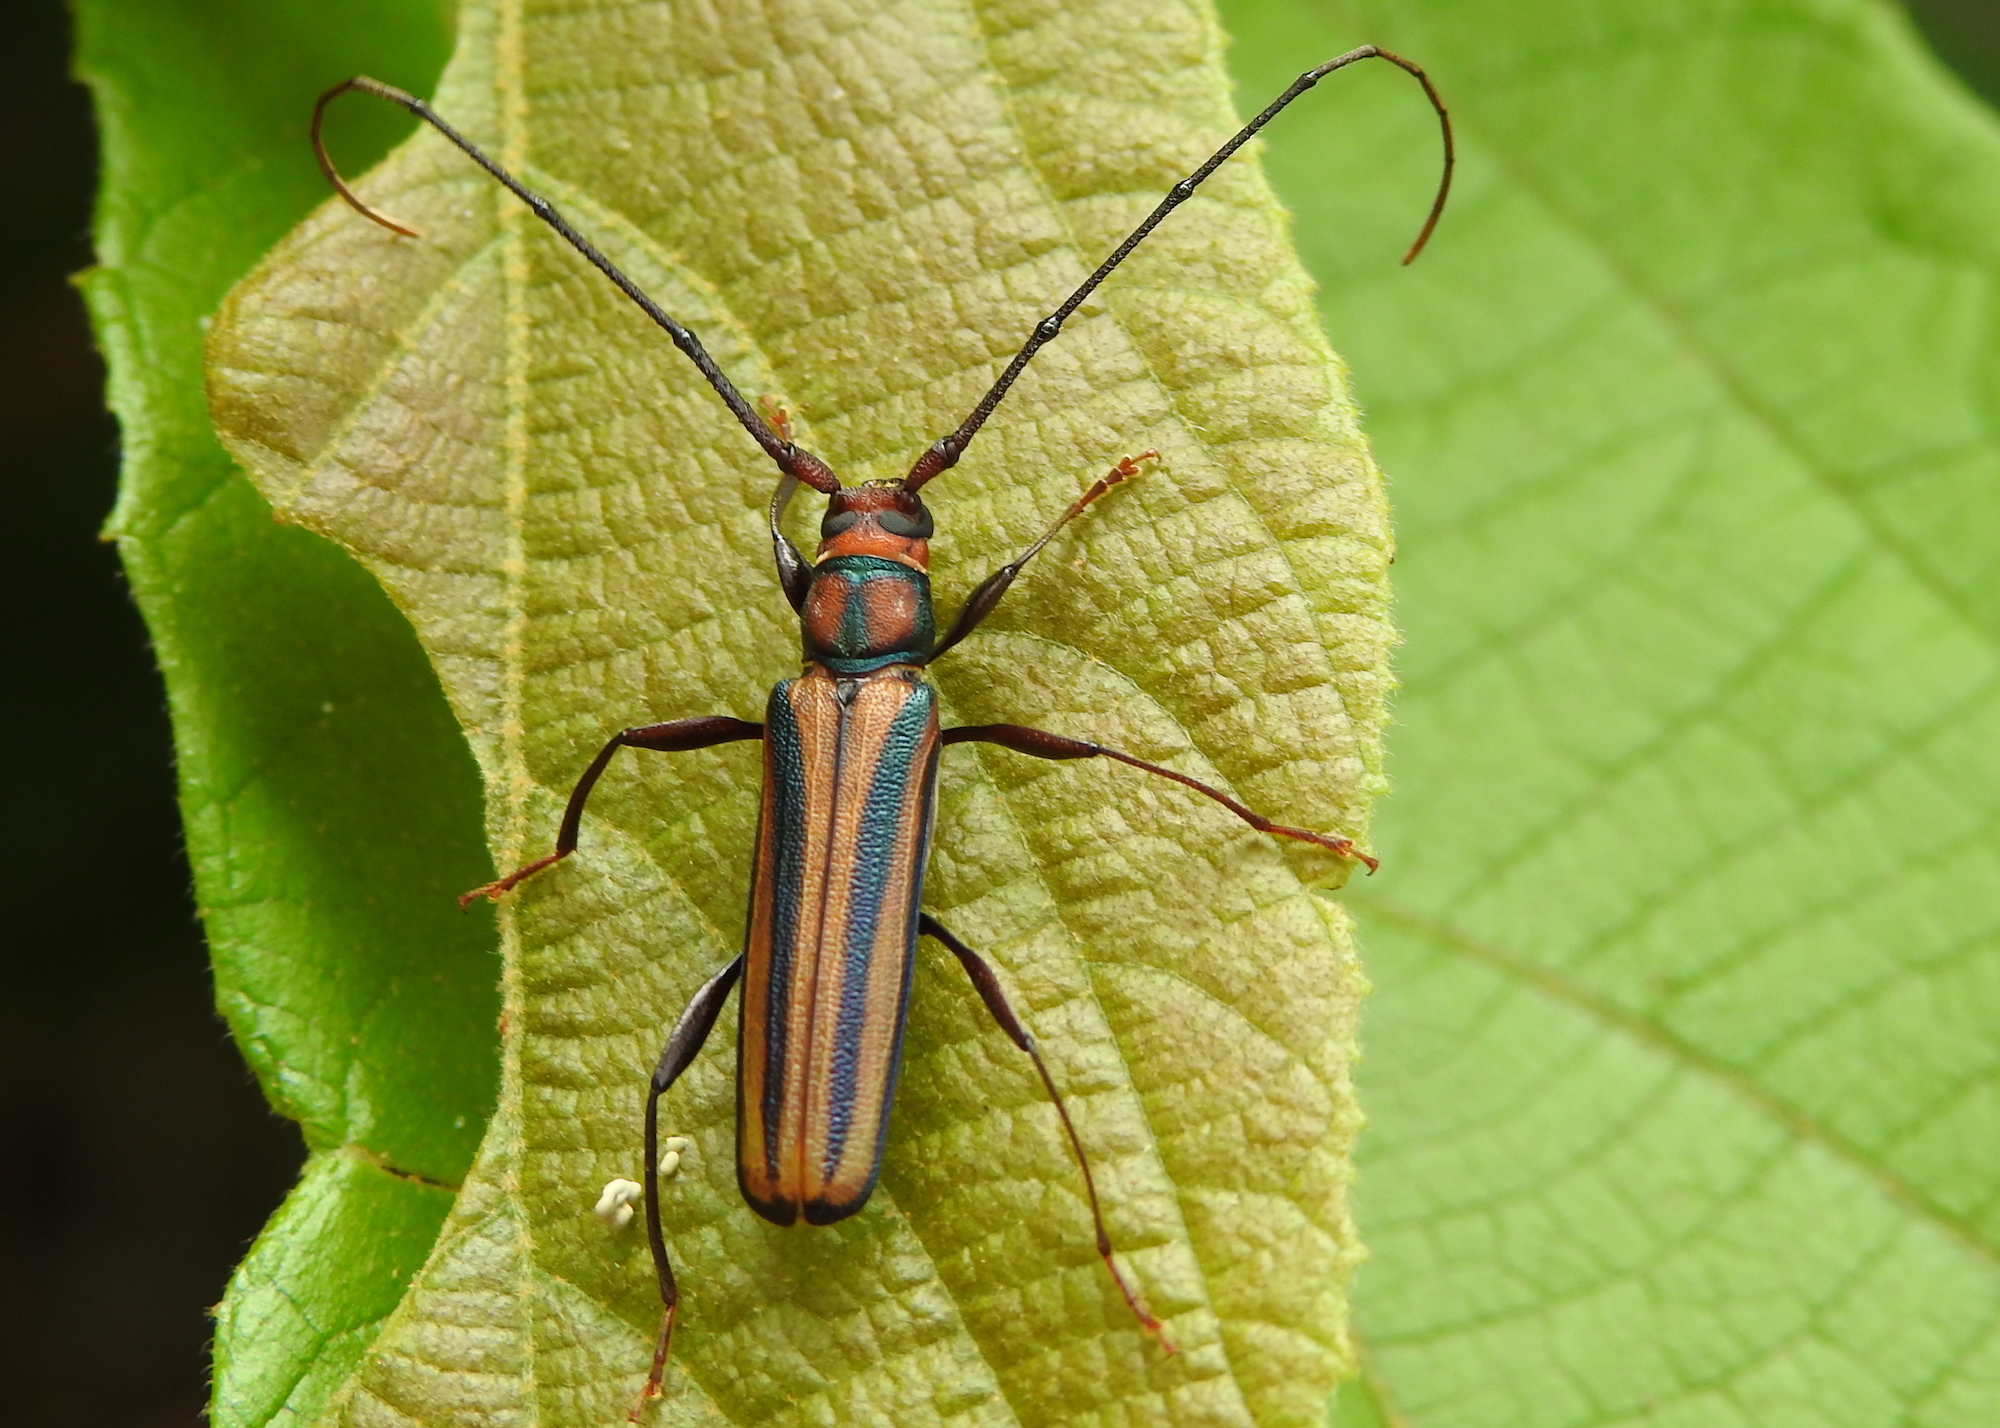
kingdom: Animalia
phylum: Arthropoda
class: Insecta
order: Coleoptera
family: Cerambycidae
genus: Xystrocera
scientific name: Xystrocera globosa
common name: Peach-tree longhorn
